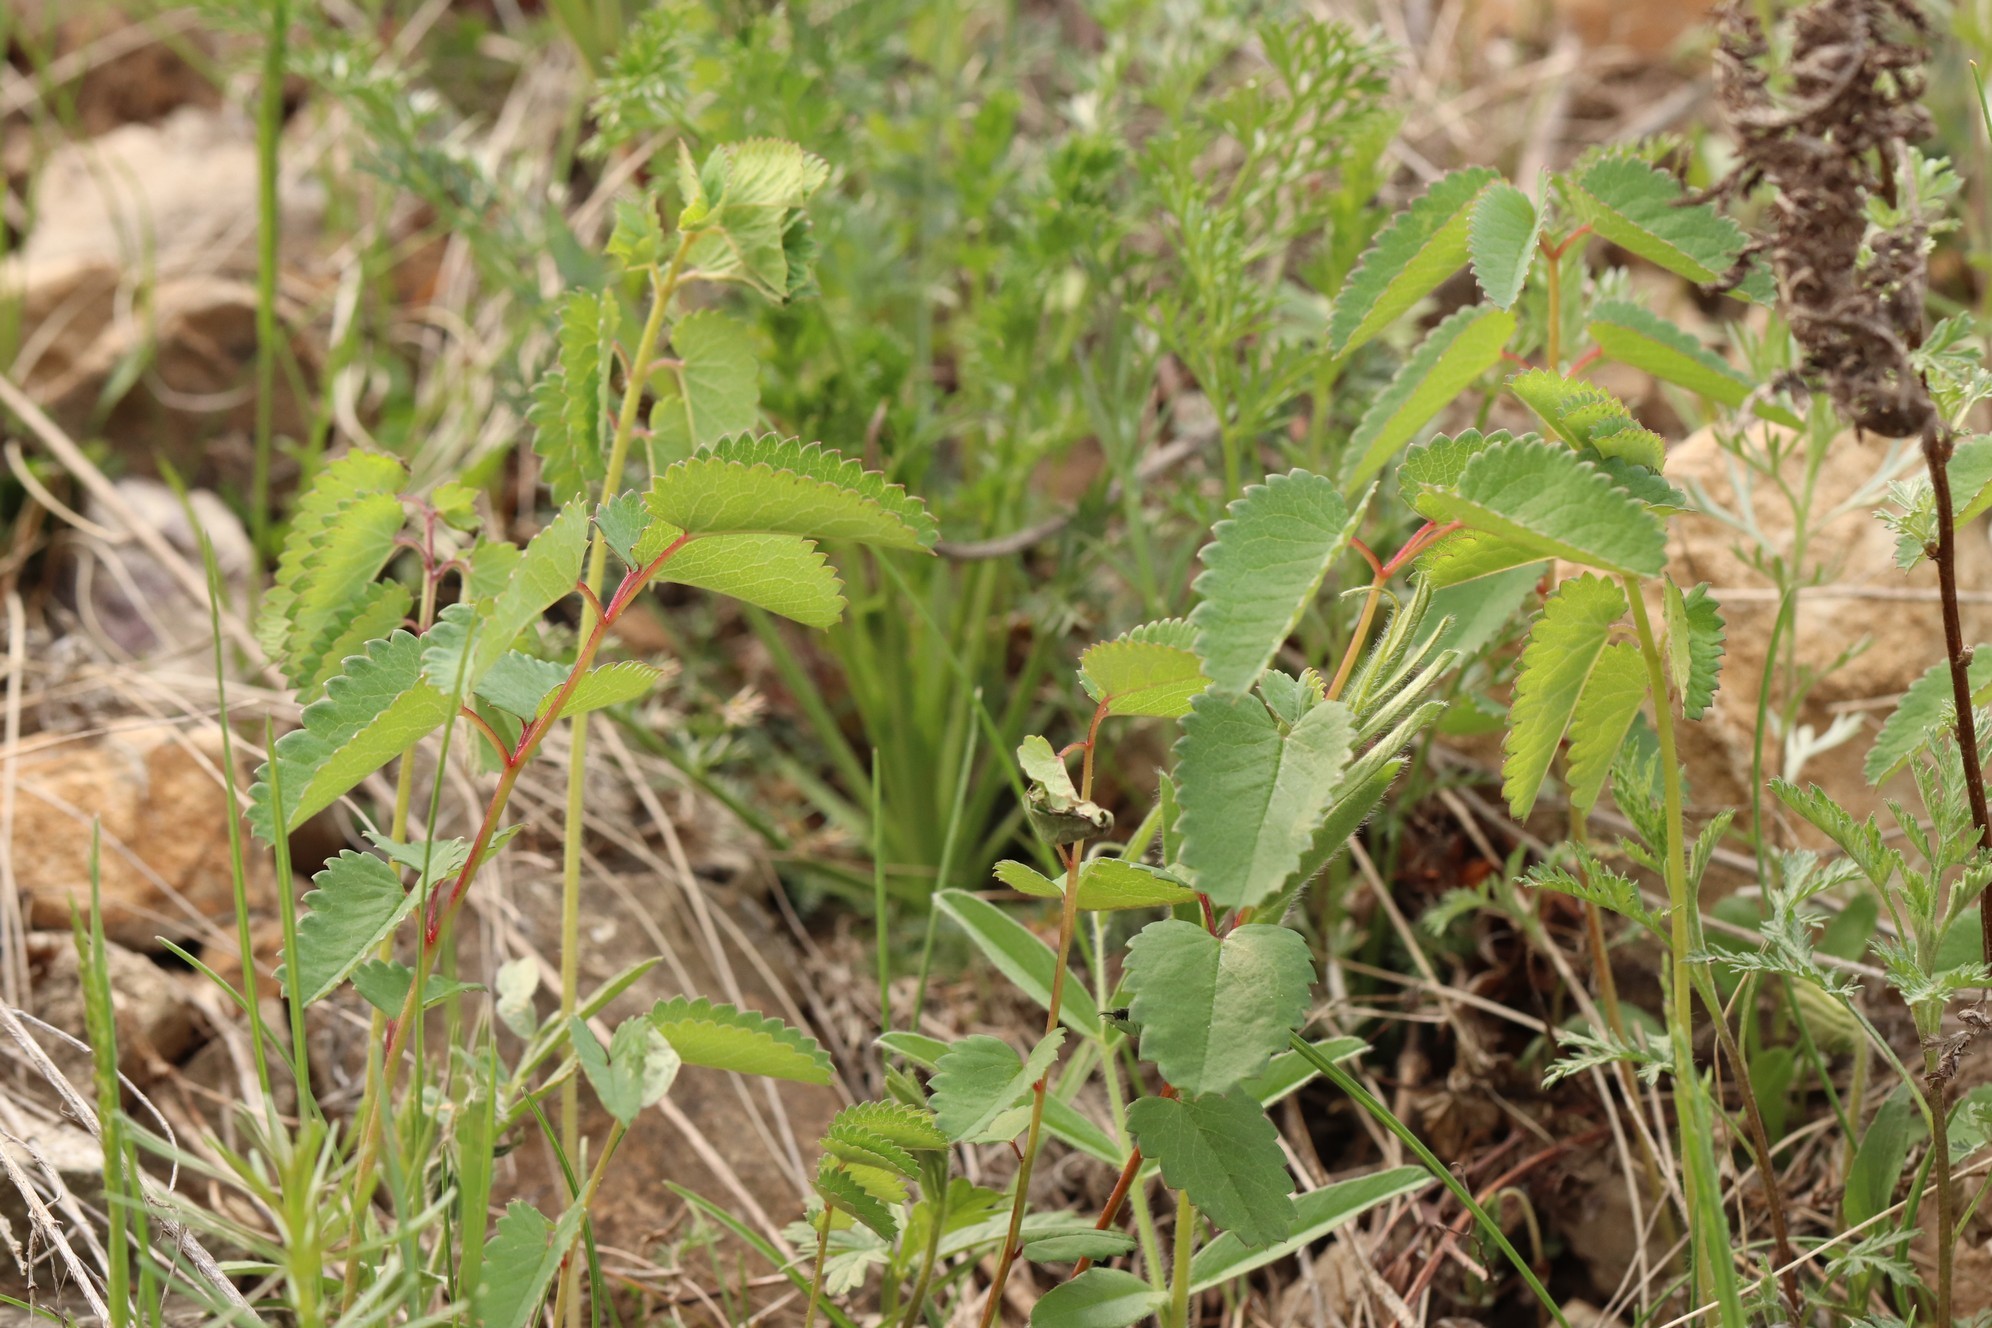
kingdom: Plantae
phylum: Tracheophyta
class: Magnoliopsida
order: Rosales
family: Rosaceae
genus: Sanguisorba
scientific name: Sanguisorba officinalis
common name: Great burnet
